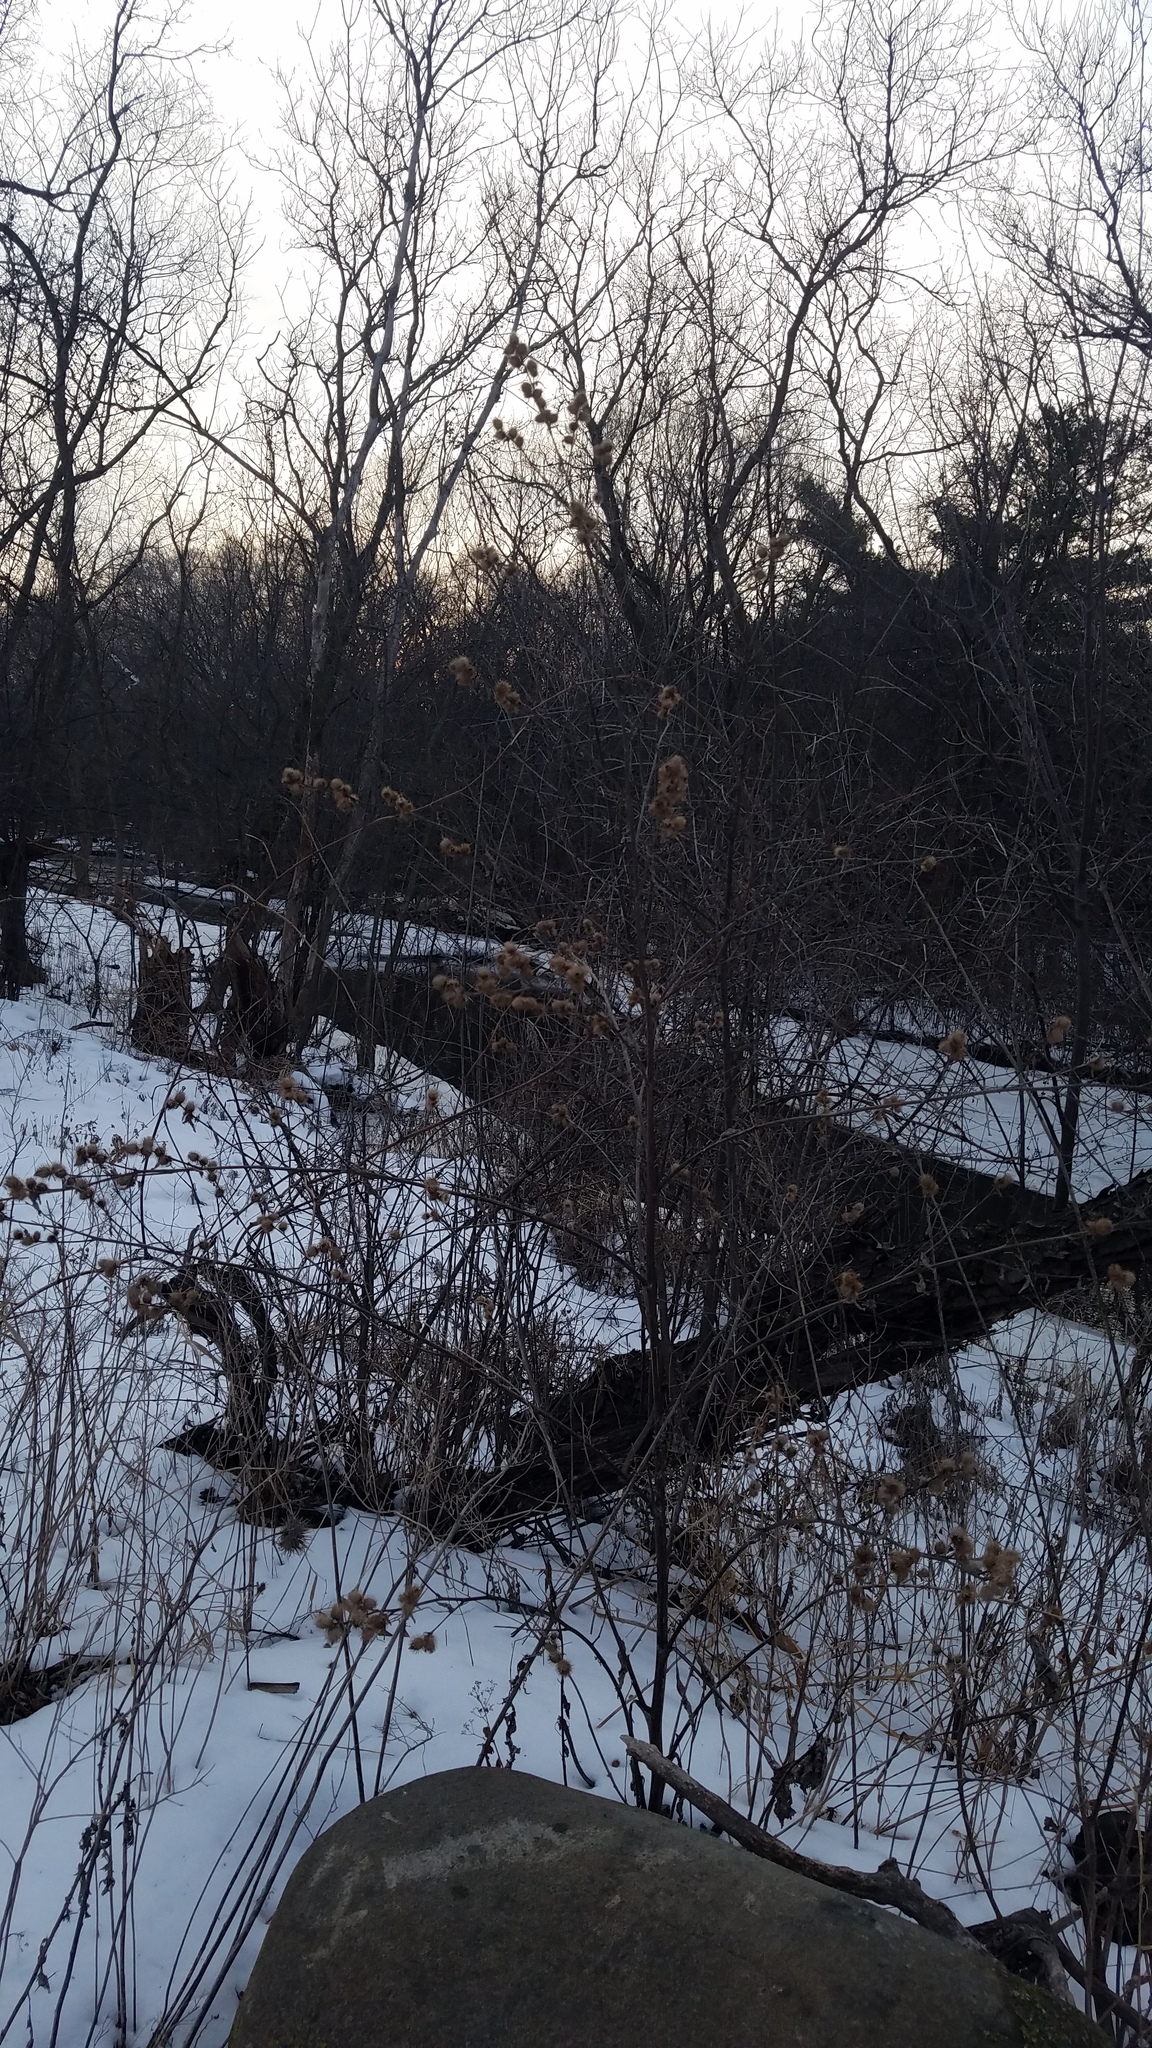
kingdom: Plantae
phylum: Tracheophyta
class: Magnoliopsida
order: Asterales
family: Asteraceae
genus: Arctium
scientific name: Arctium minus
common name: Lesser burdock
